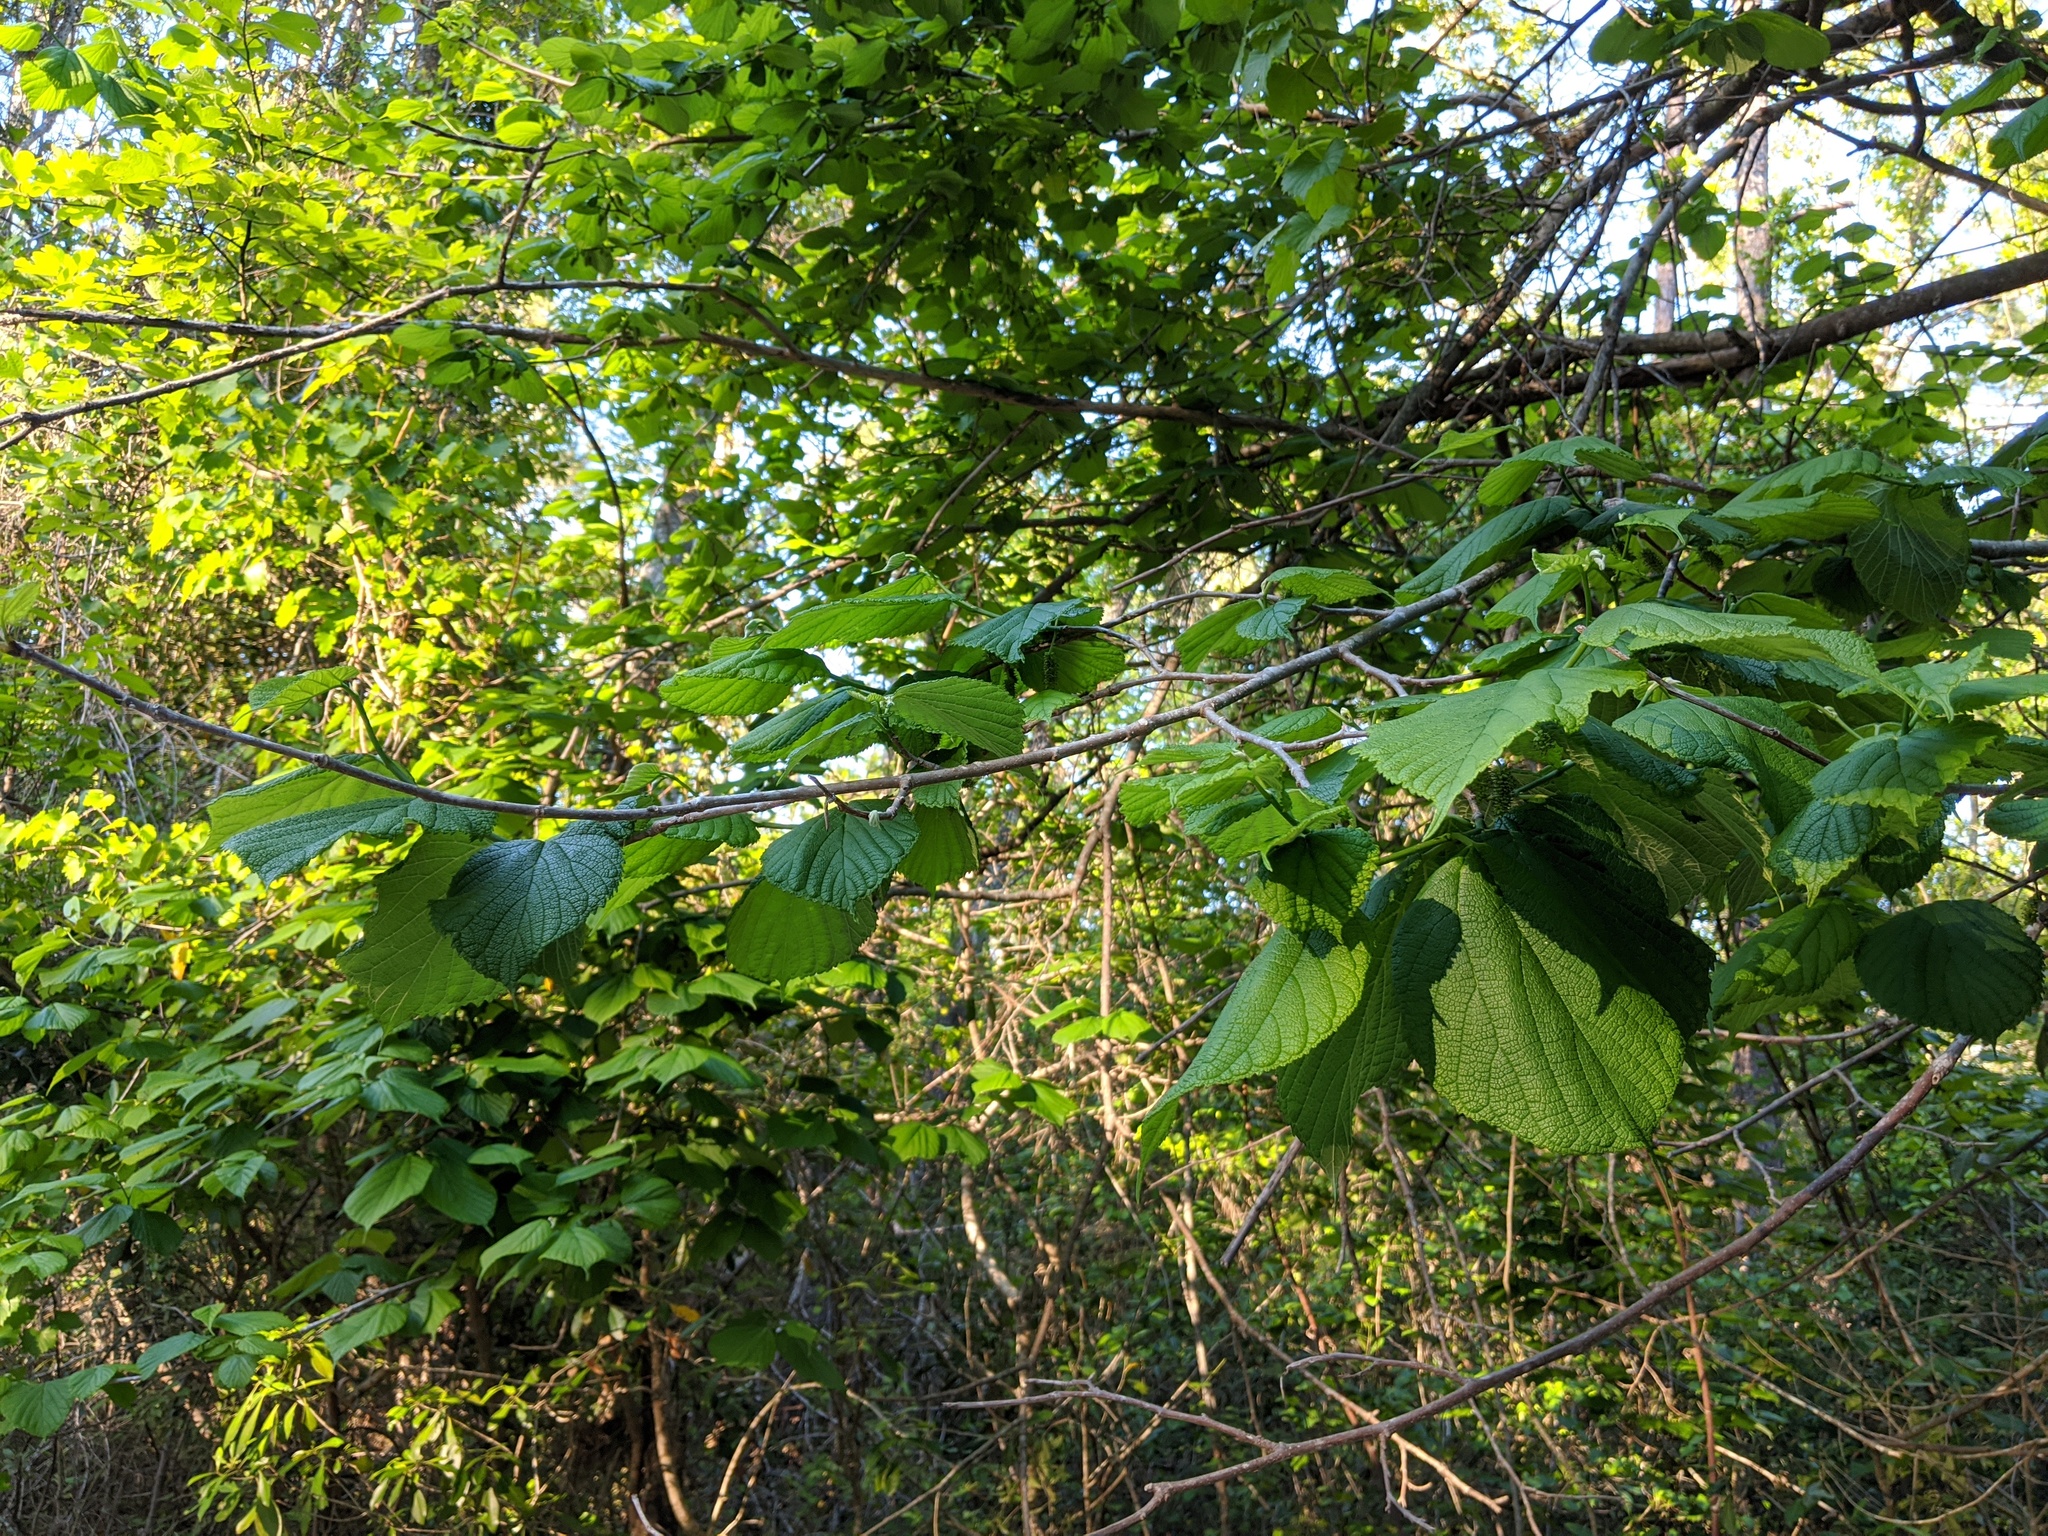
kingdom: Plantae
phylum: Tracheophyta
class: Magnoliopsida
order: Rosales
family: Moraceae
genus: Morus
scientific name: Morus rubra
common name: Red mulberry
